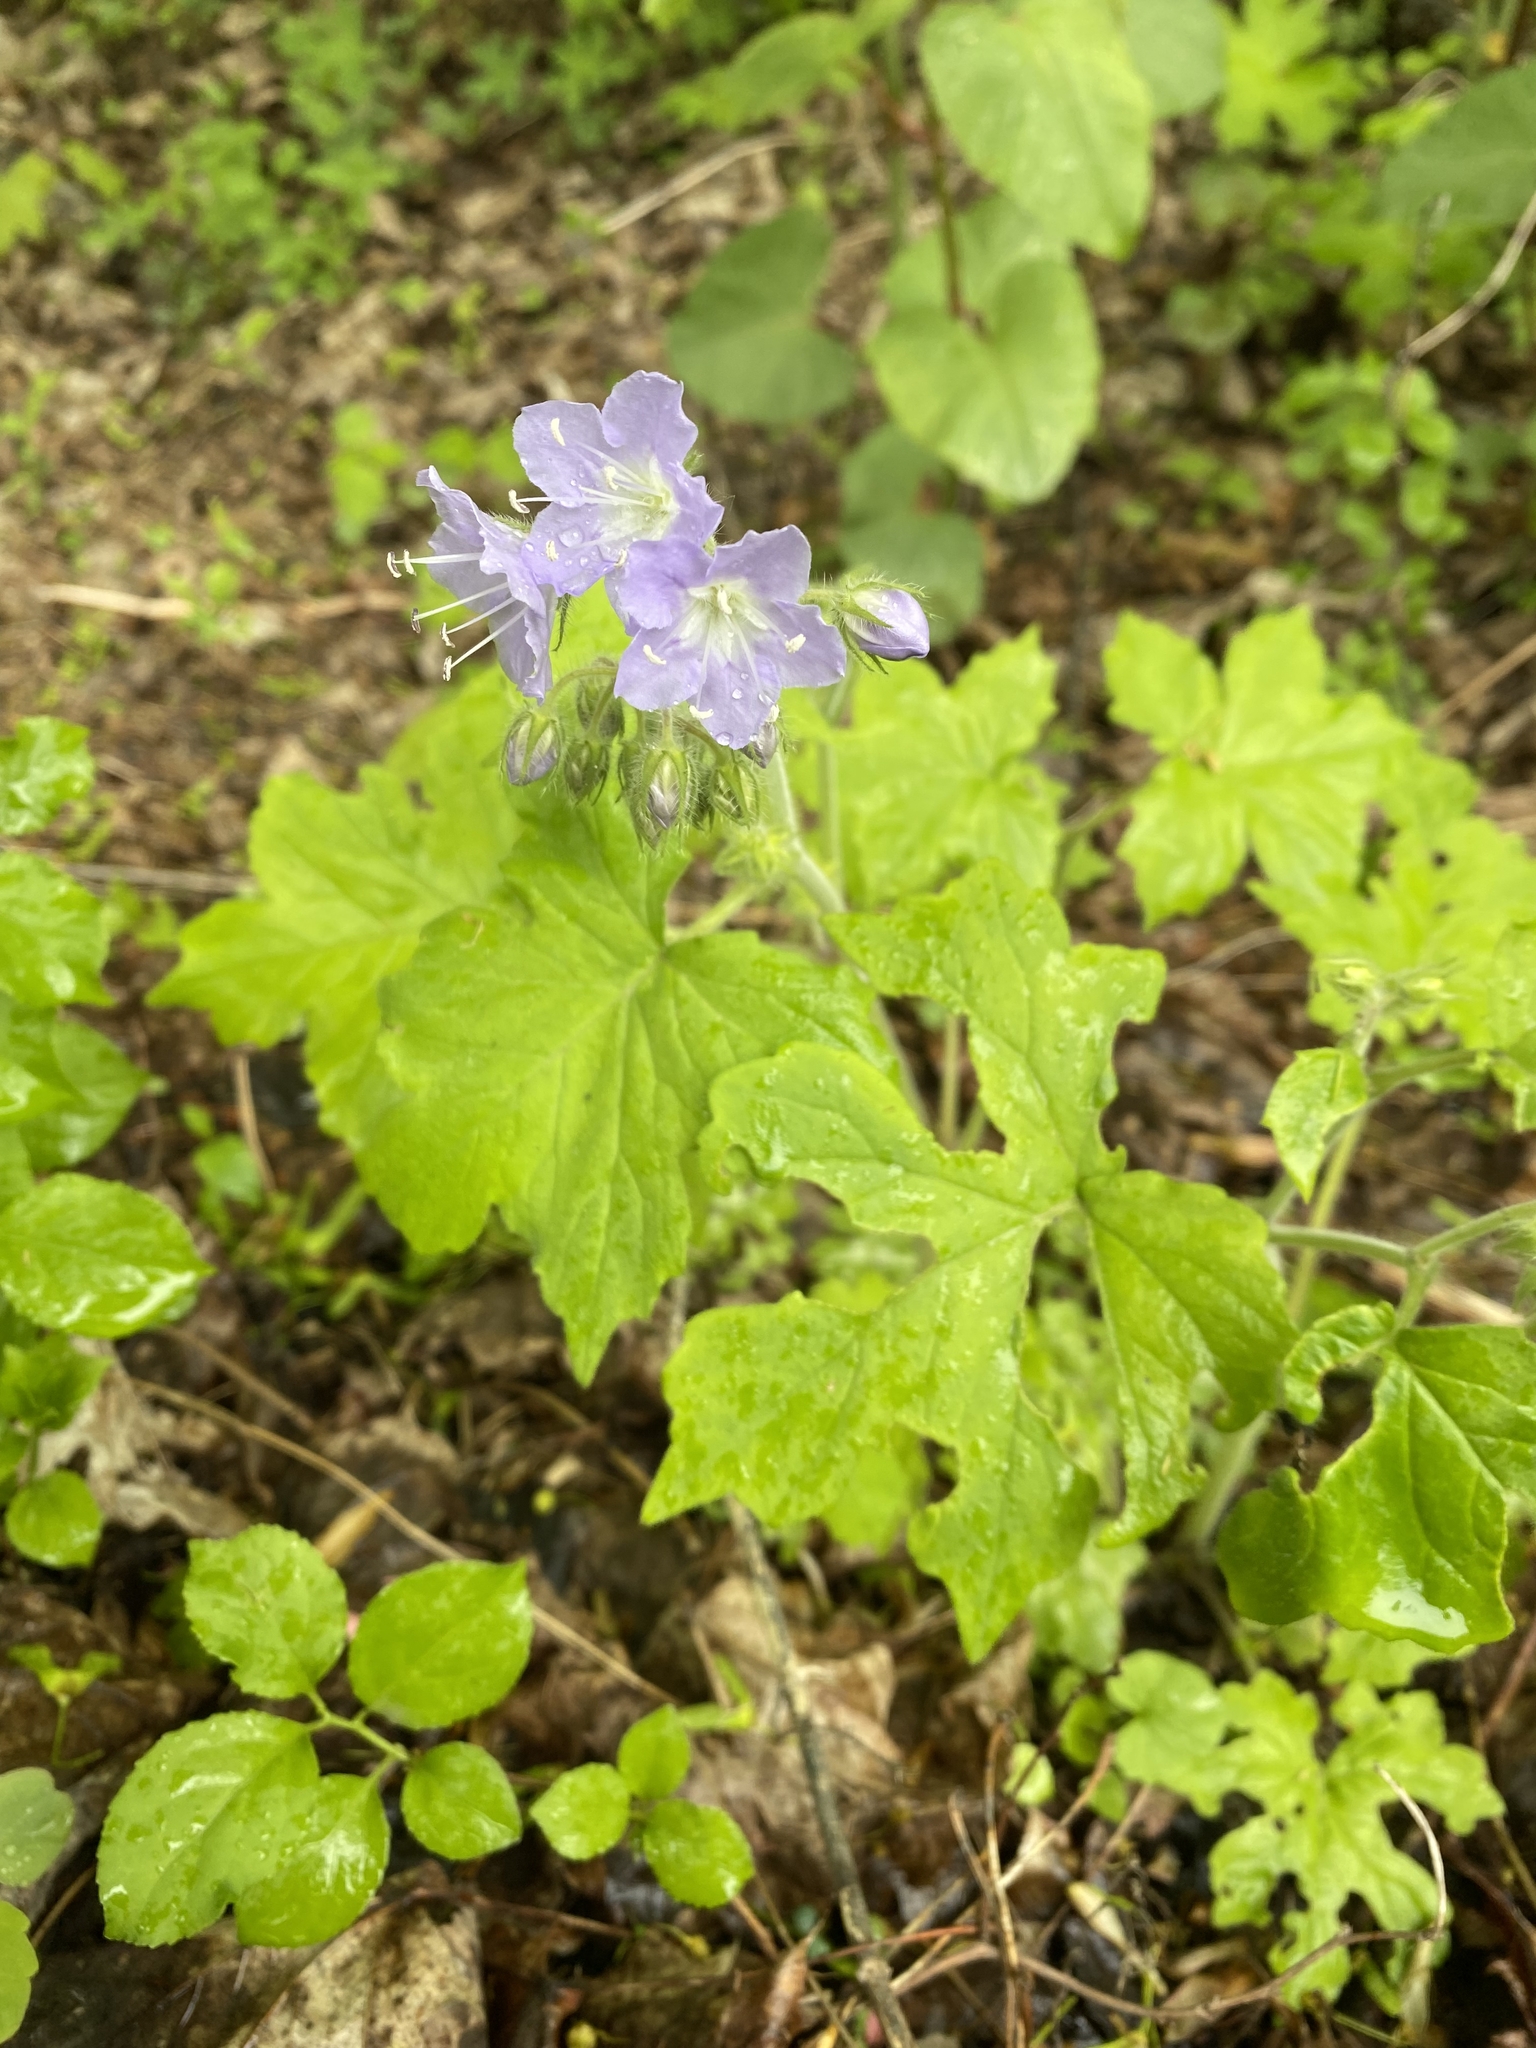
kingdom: Plantae
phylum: Tracheophyta
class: Magnoliopsida
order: Boraginales
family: Hydrophyllaceae
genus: Hydrophyllum
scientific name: Hydrophyllum appendiculatum
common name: Appendaged waterleaf
